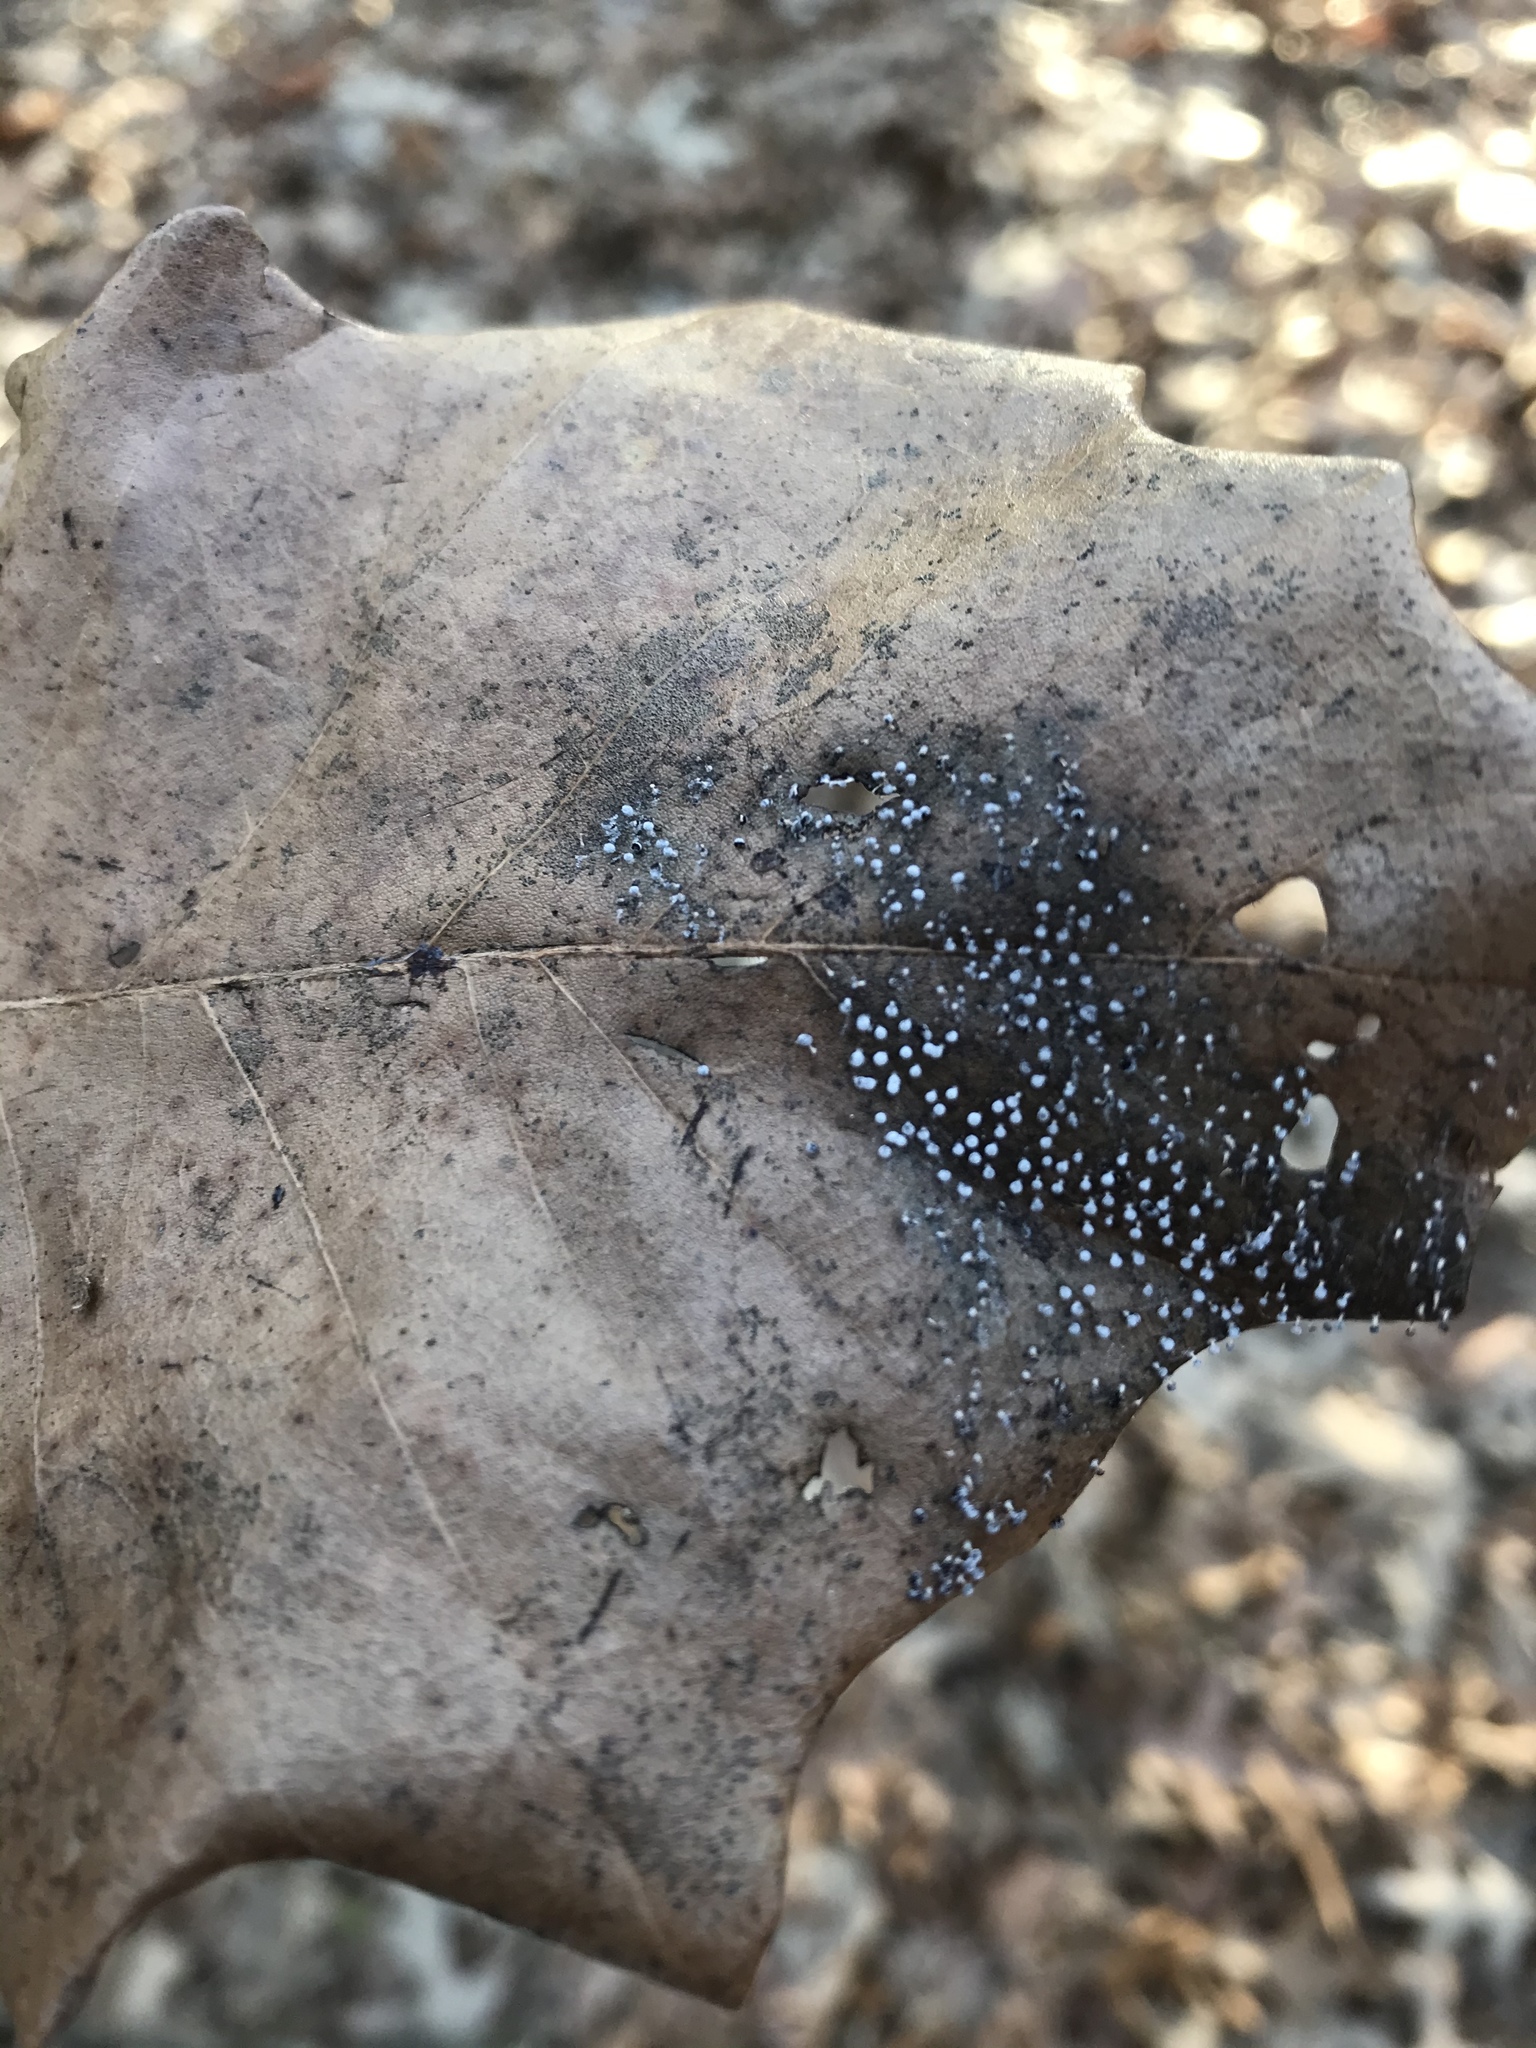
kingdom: Protozoa
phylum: Mycetozoa
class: Myxomycetes
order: Physarales
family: Didymiaceae
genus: Didymium
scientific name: Didymium squamulosum
